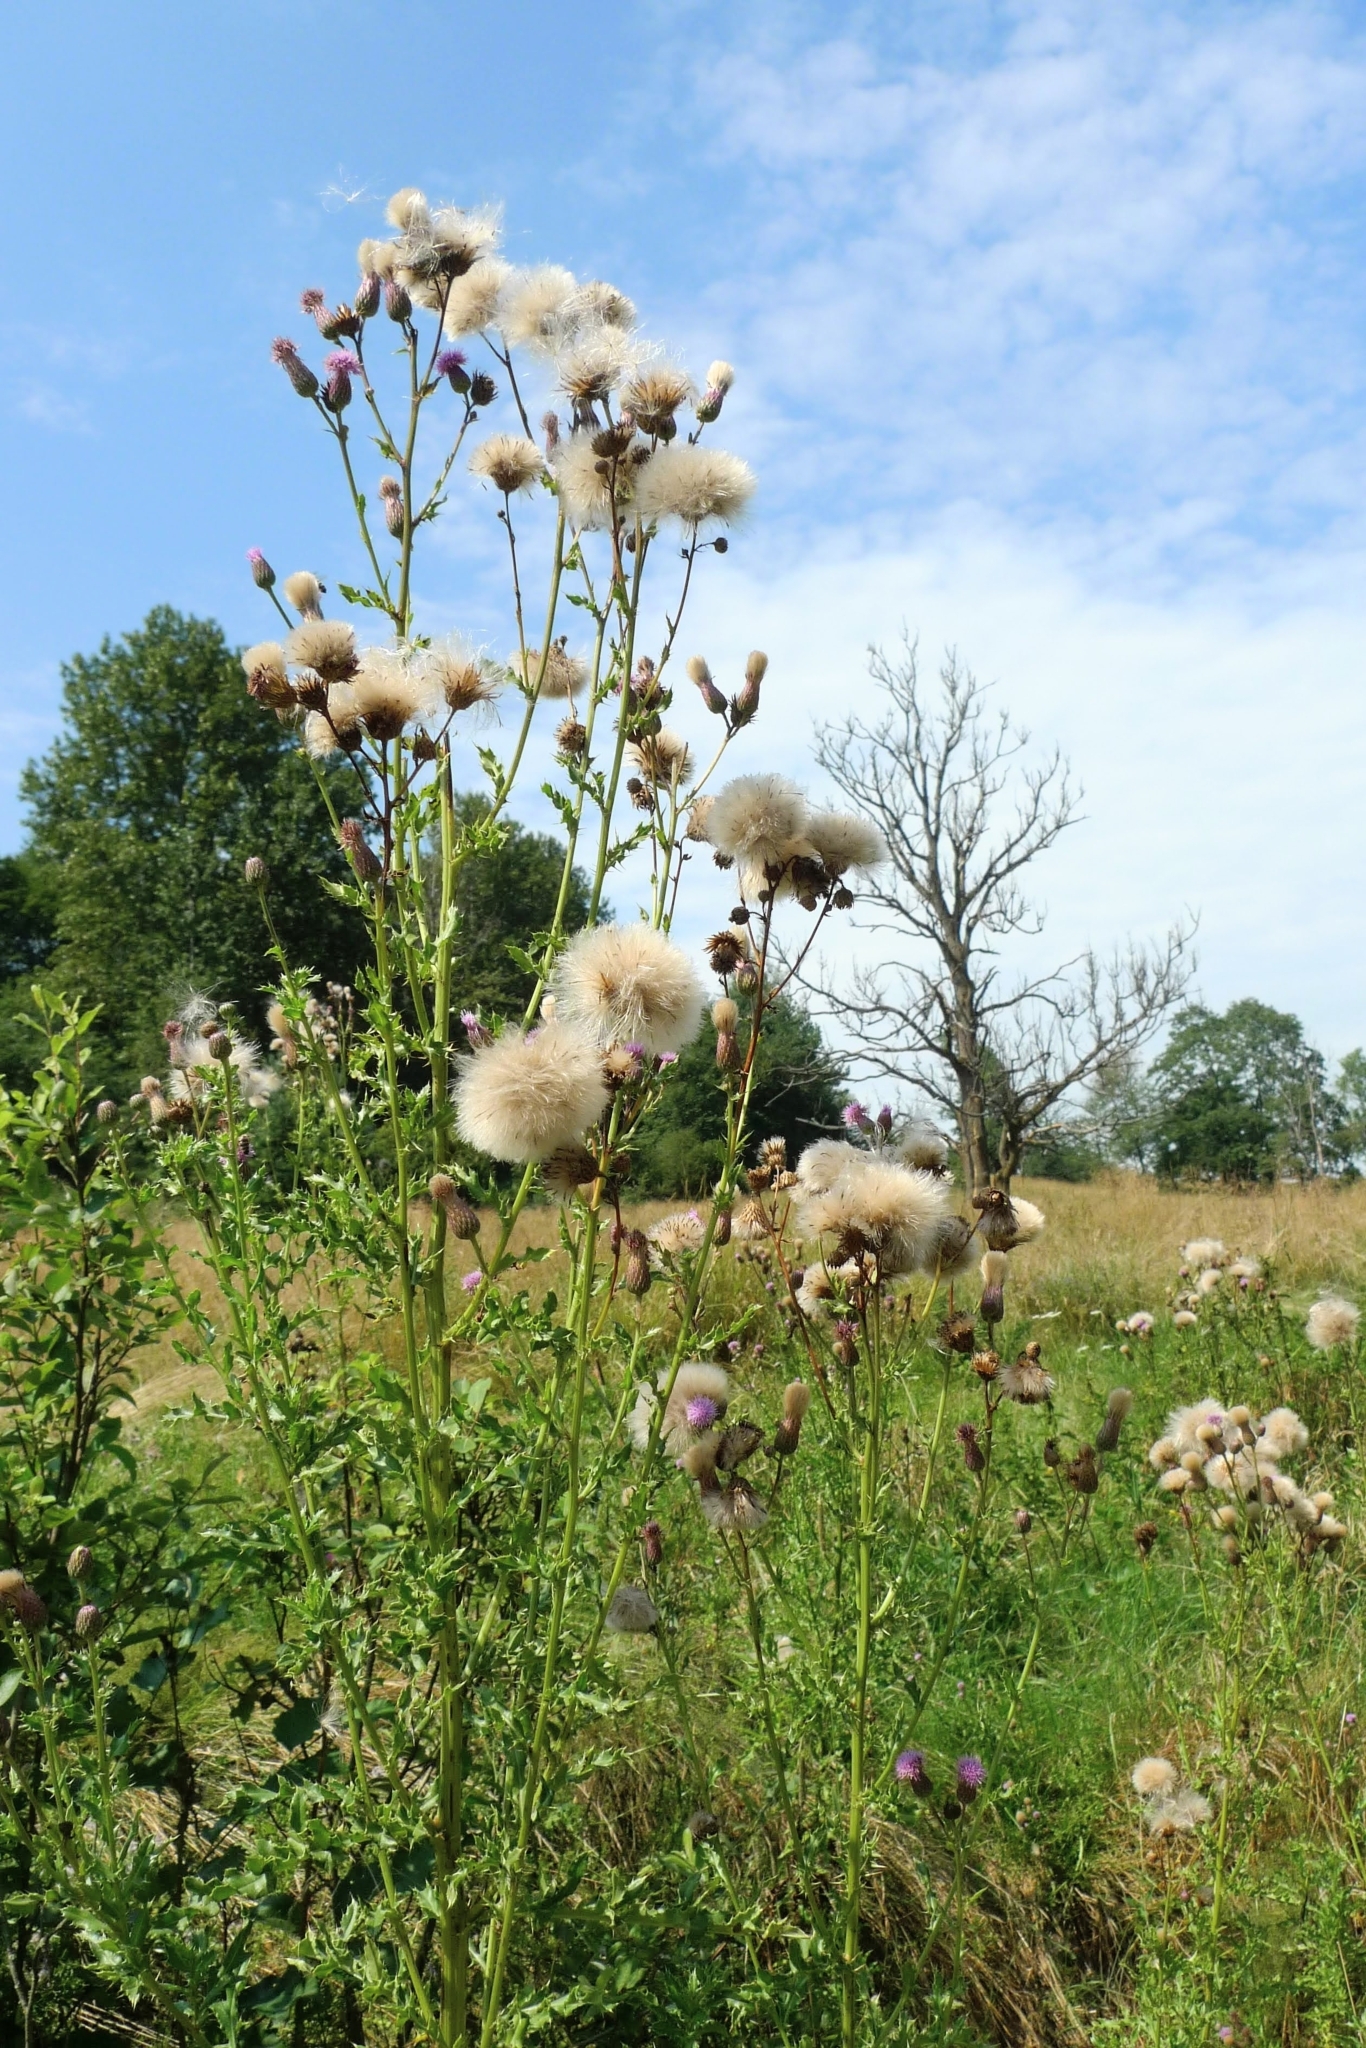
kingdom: Plantae
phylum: Tracheophyta
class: Magnoliopsida
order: Asterales
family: Asteraceae
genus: Cirsium
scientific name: Cirsium arvense
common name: Creeping thistle
